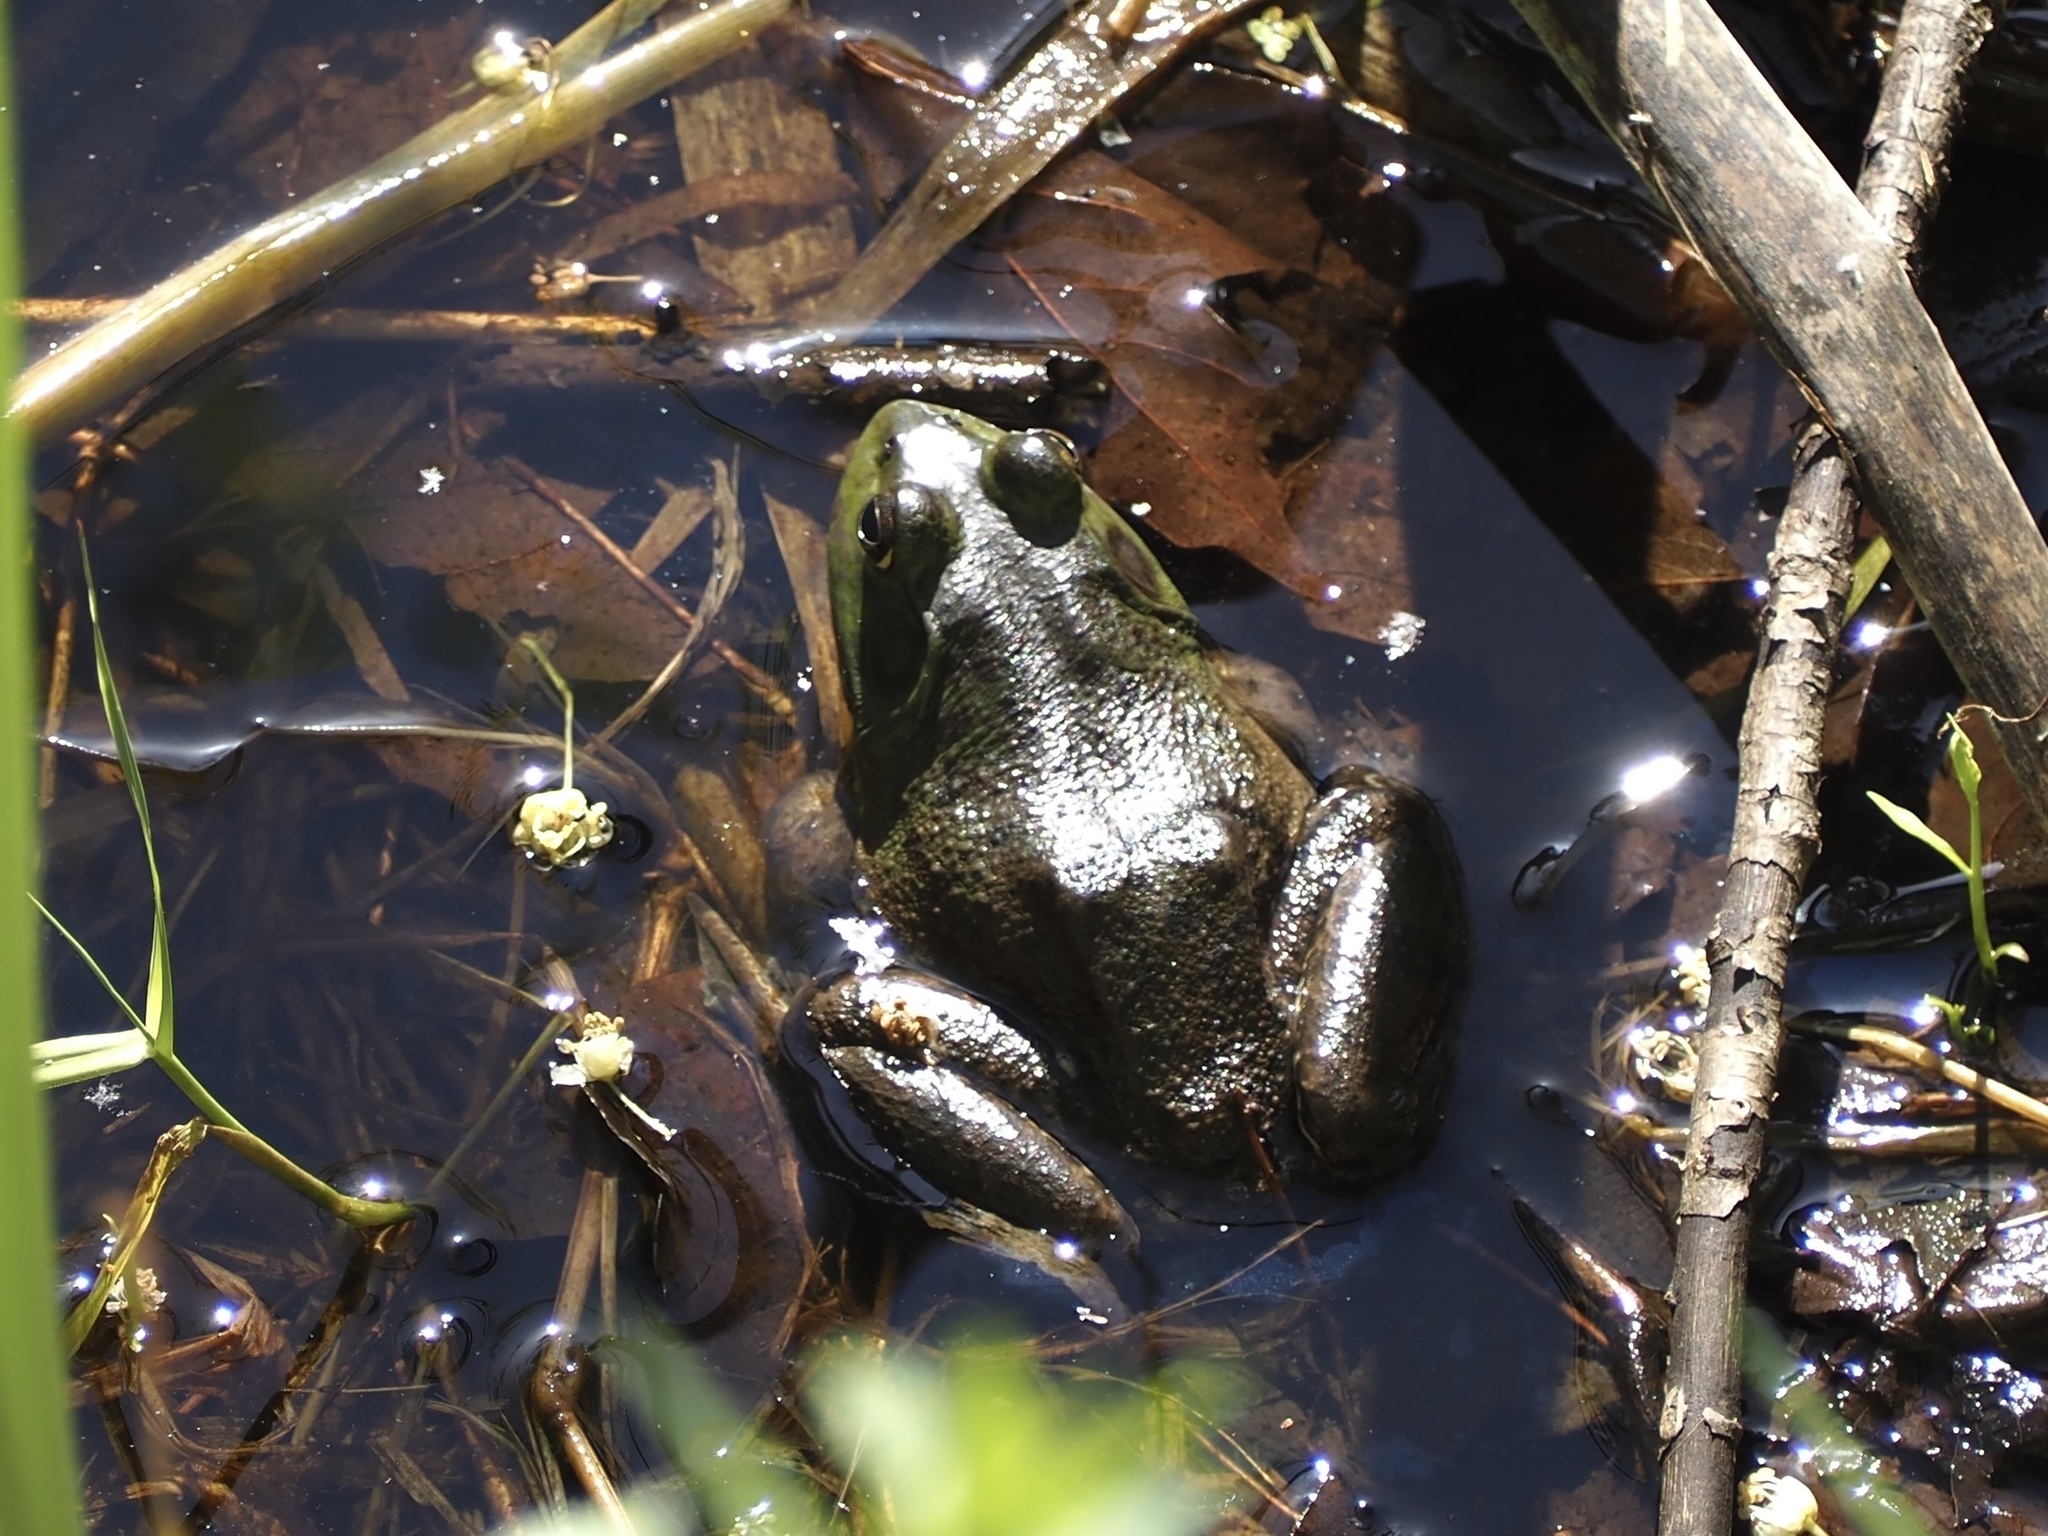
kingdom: Animalia
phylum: Chordata
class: Amphibia
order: Anura
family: Ranidae
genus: Lithobates
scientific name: Lithobates catesbeianus
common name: American bullfrog
